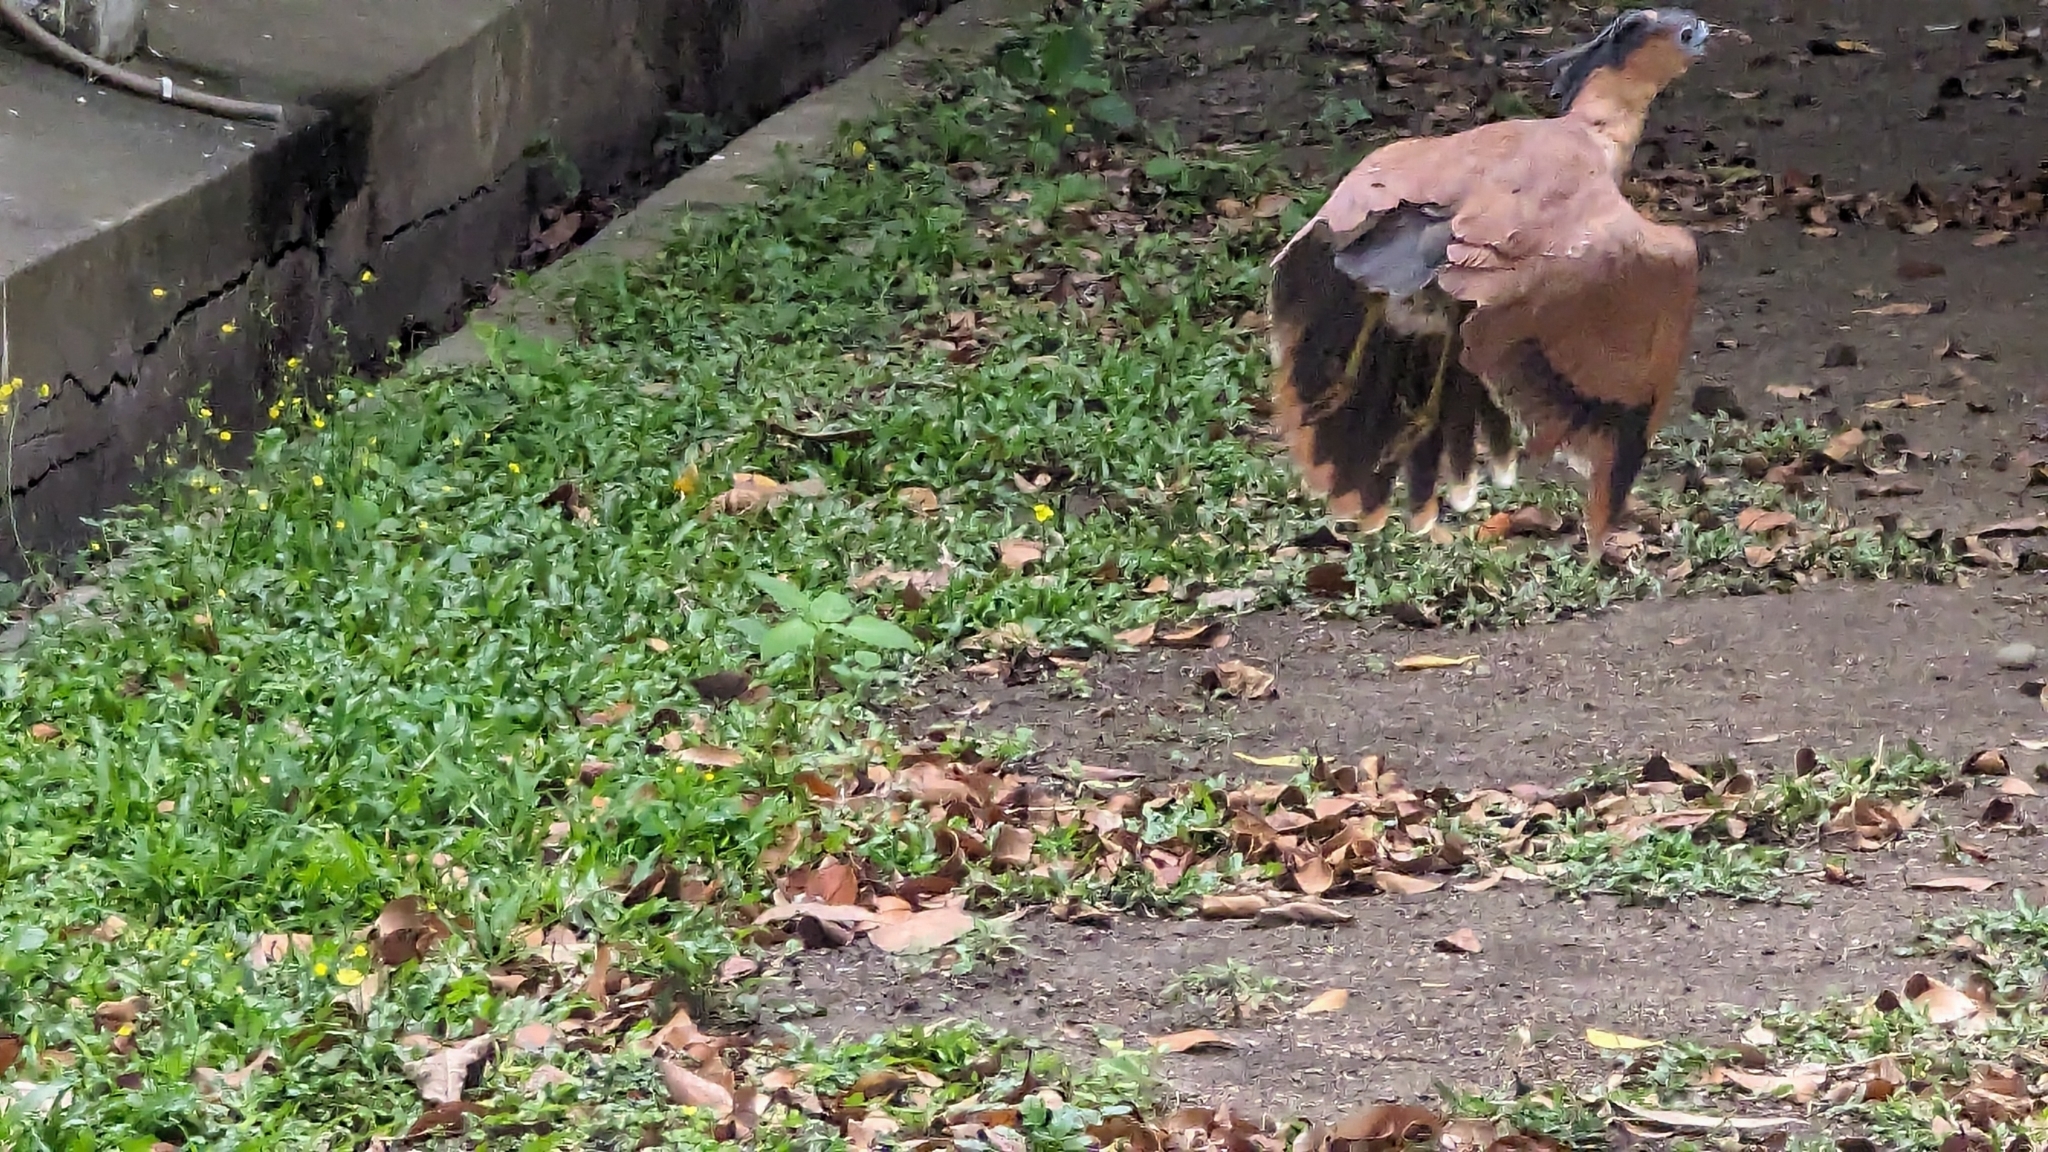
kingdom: Animalia
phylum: Chordata
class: Aves
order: Pelecaniformes
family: Ardeidae
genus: Gorsachius
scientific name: Gorsachius melanolophus
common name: Malayan night heron
